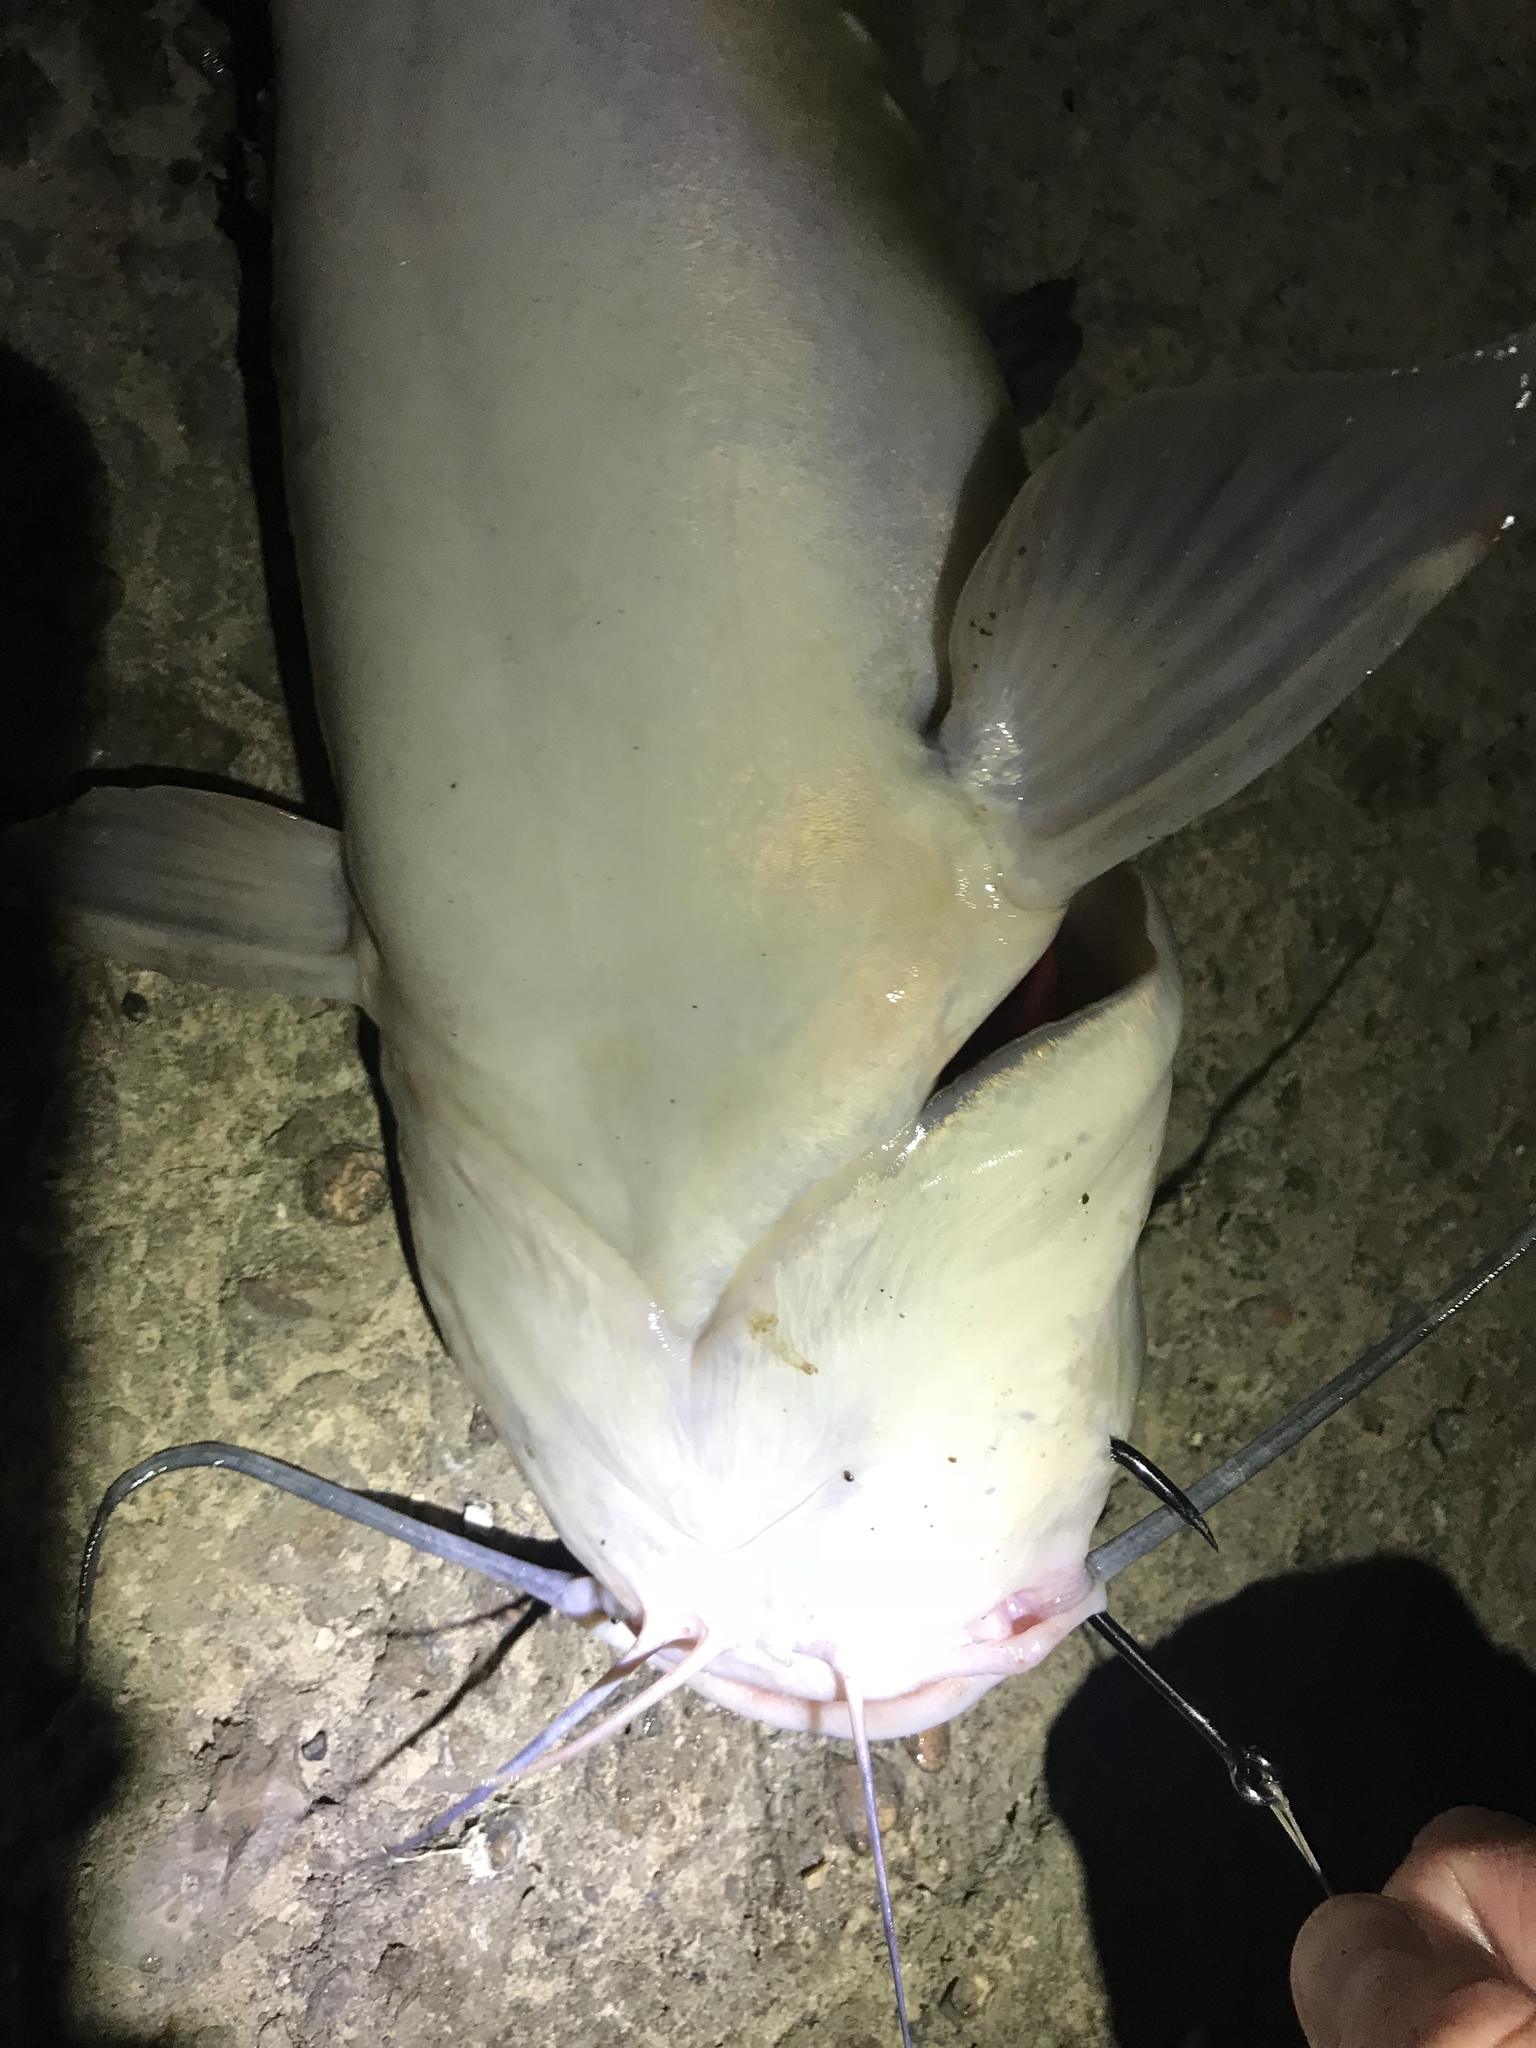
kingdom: Animalia
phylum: Chordata
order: Siluriformes
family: Ictaluridae
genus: Ictalurus
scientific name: Ictalurus punctatus
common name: Channel catfish
